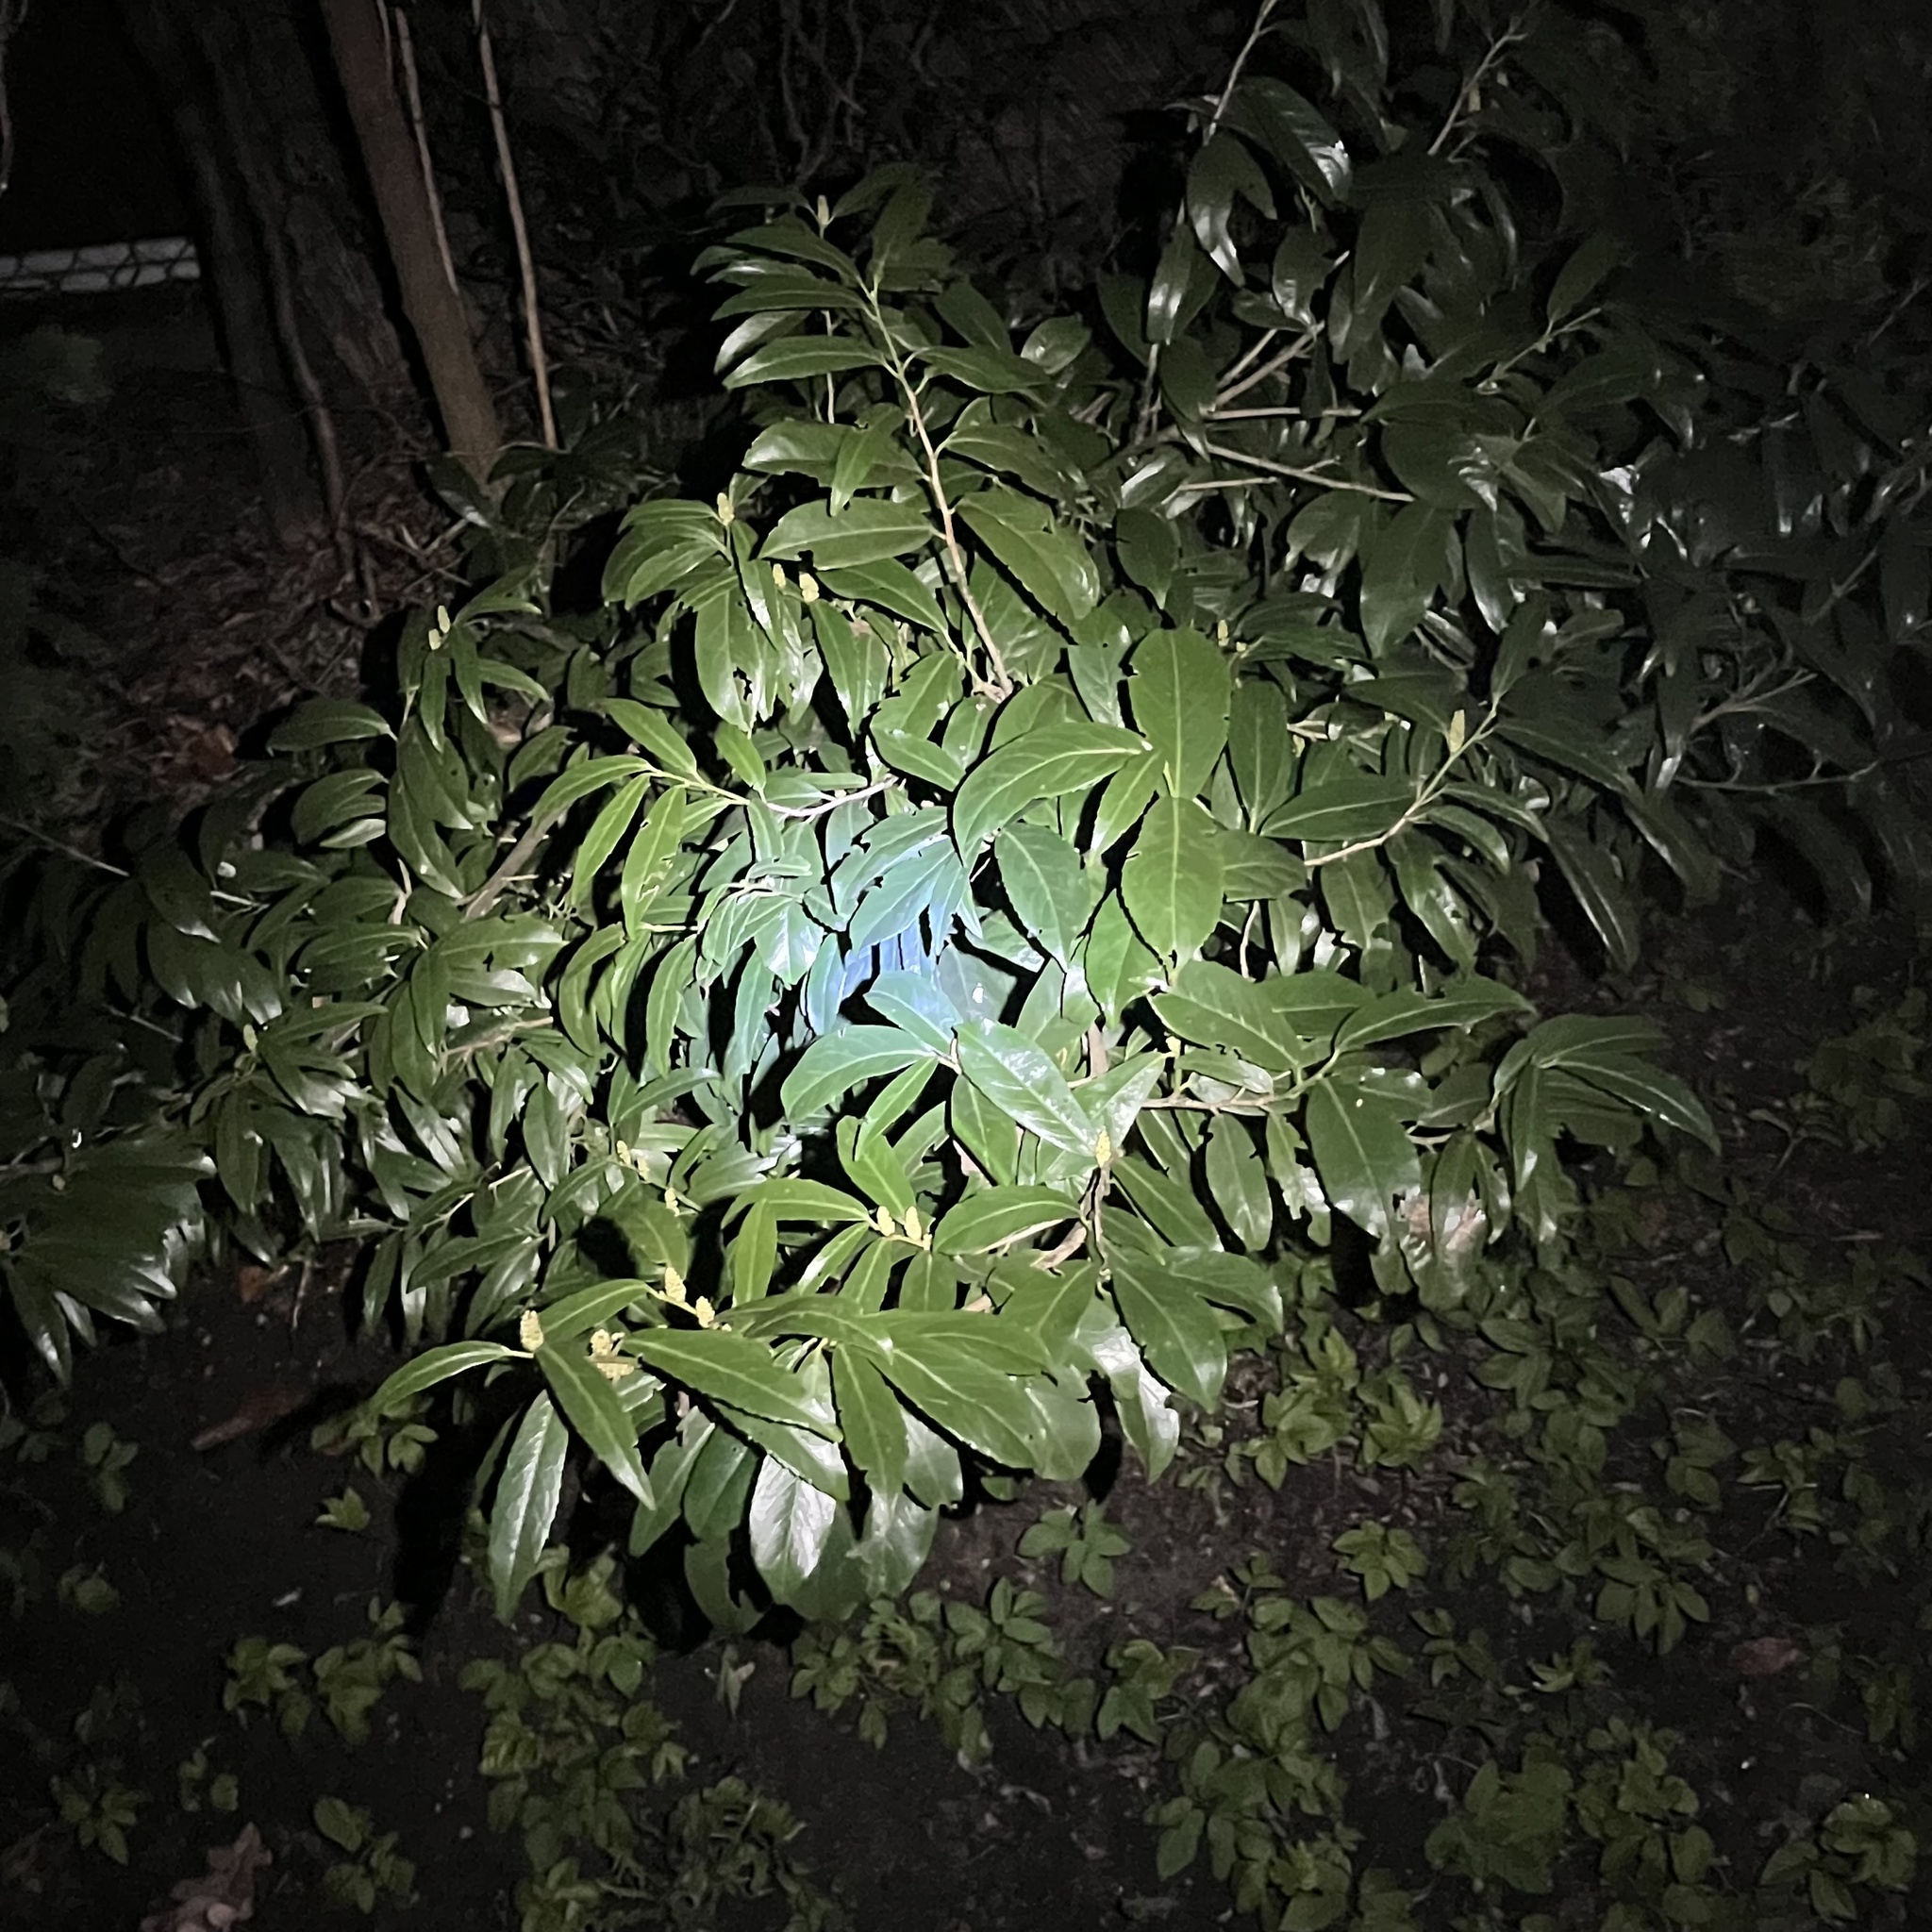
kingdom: Plantae
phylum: Tracheophyta
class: Magnoliopsida
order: Rosales
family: Rosaceae
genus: Prunus
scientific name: Prunus laurocerasus
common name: Cherry laurel
